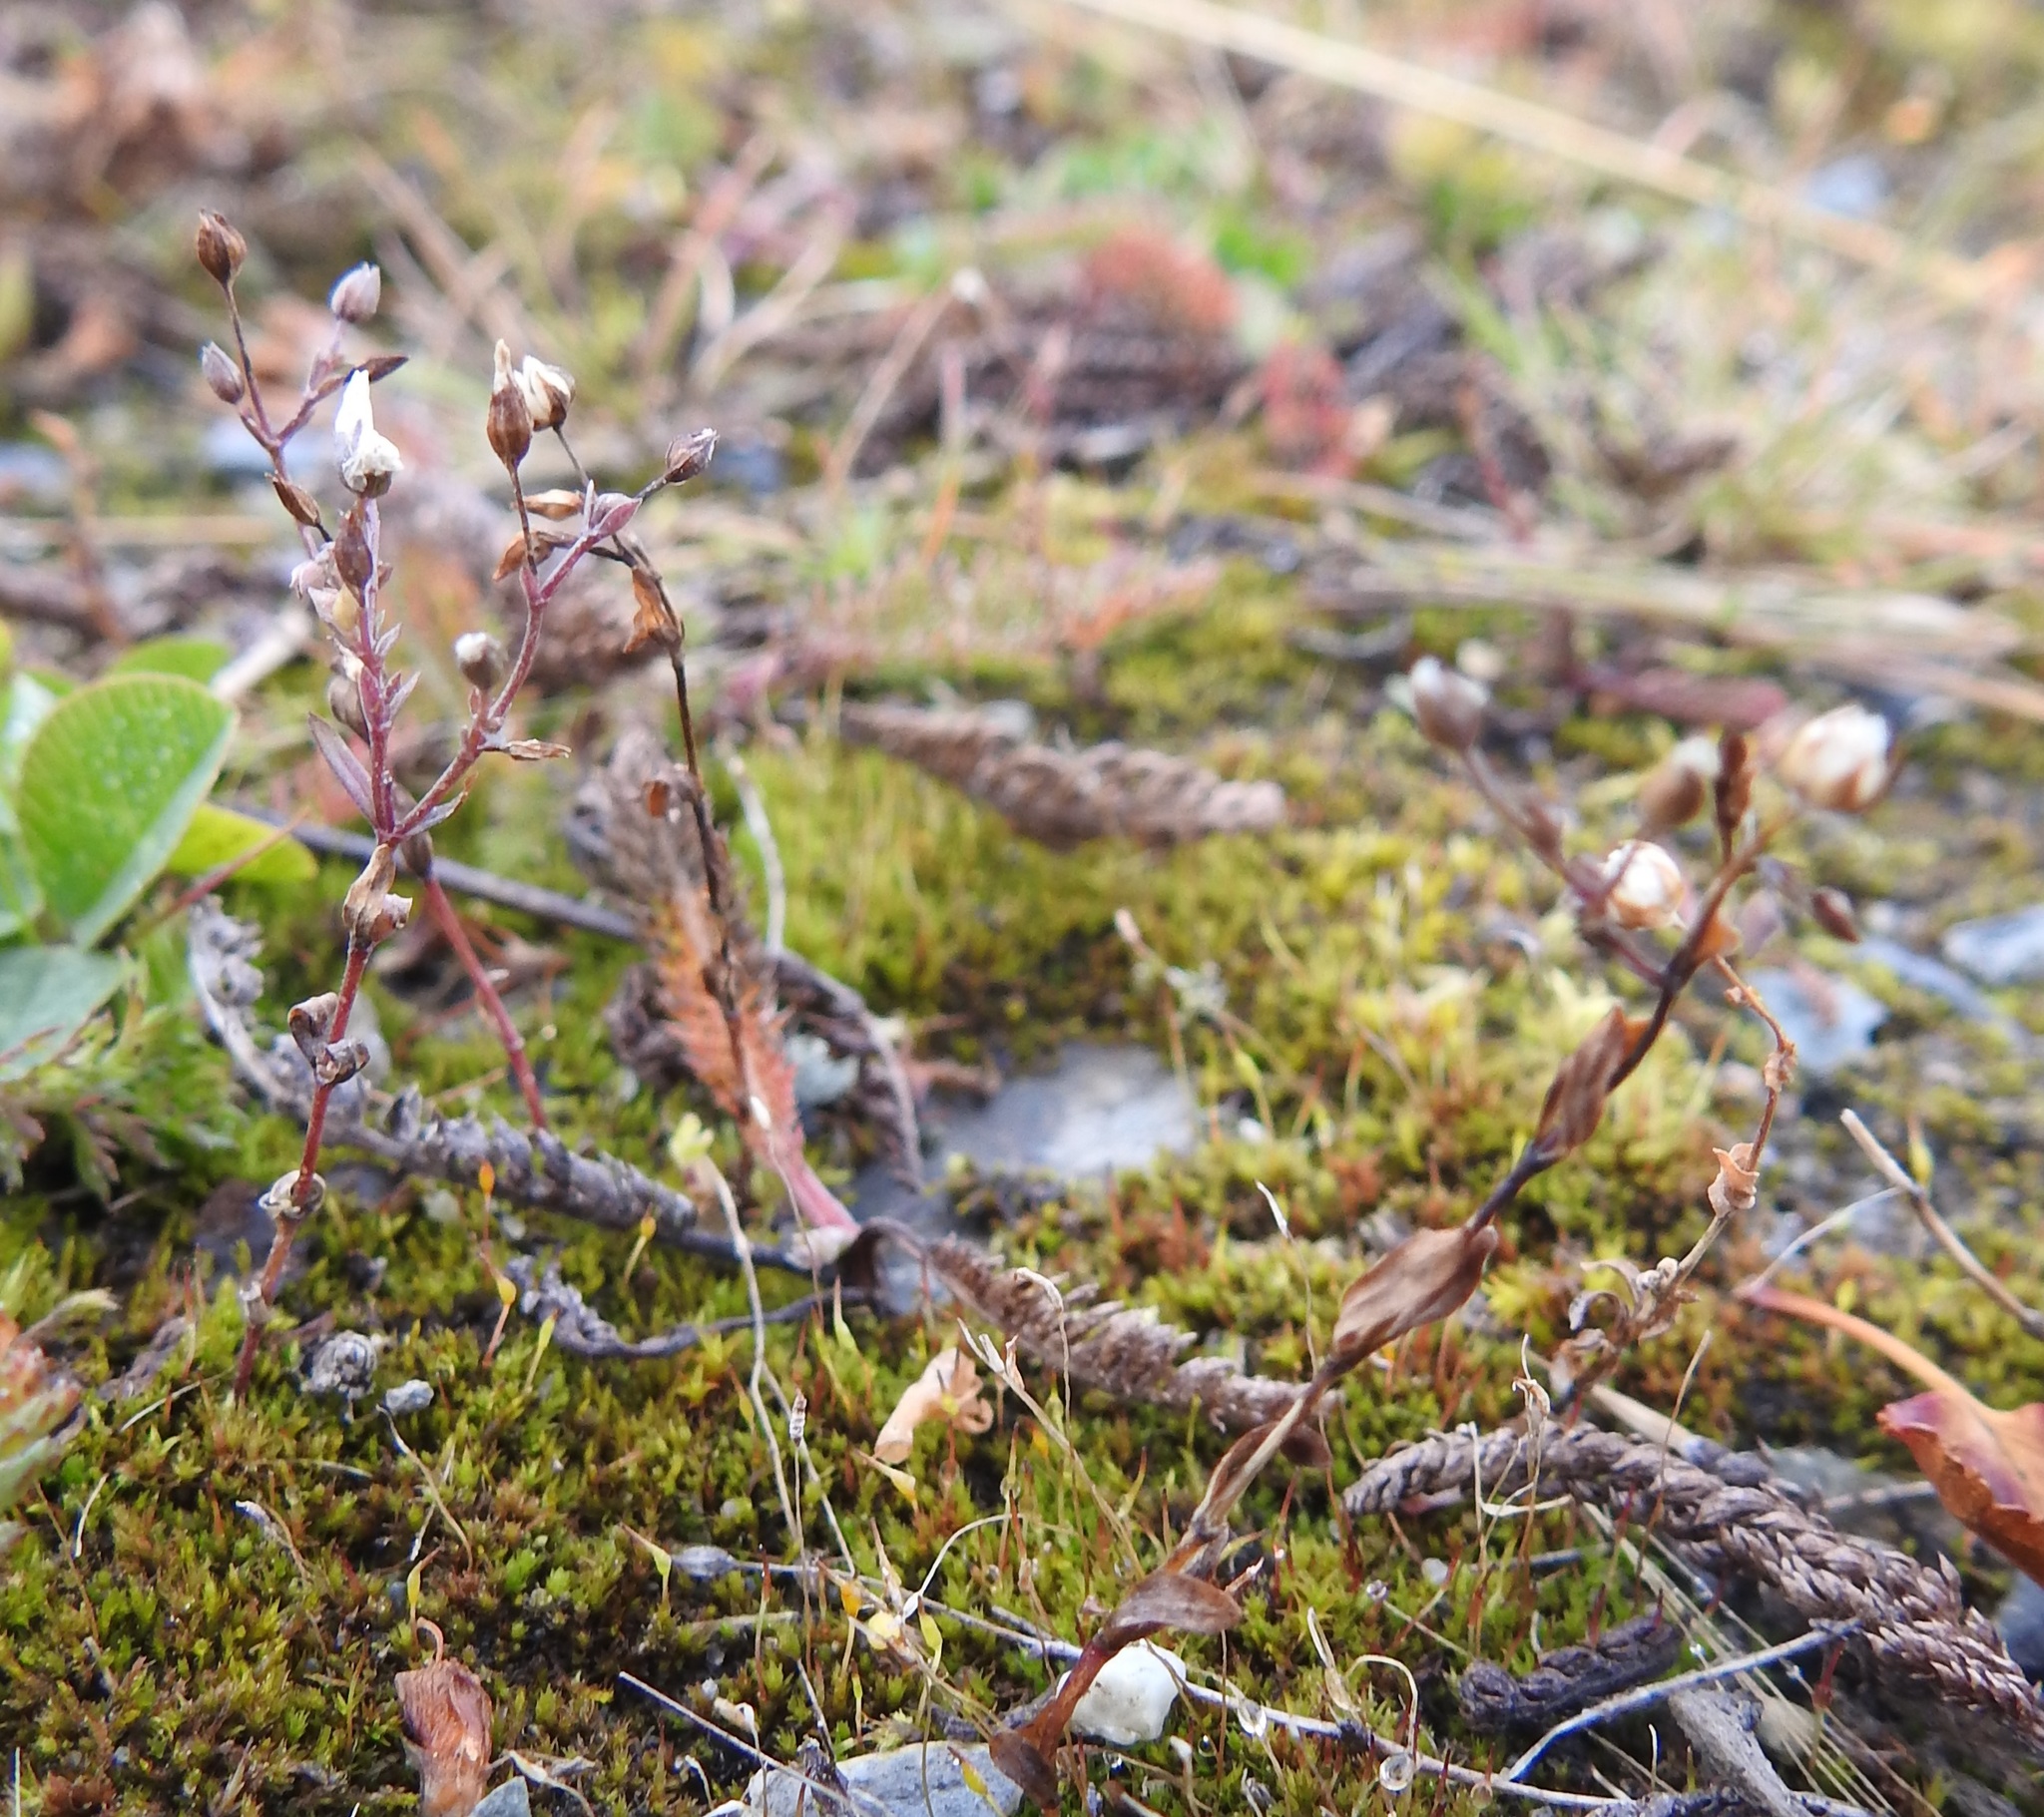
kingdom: Plantae
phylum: Tracheophyta
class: Magnoliopsida
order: Malpighiales
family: Linaceae
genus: Linum
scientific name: Linum catharticum
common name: Fairy flax
